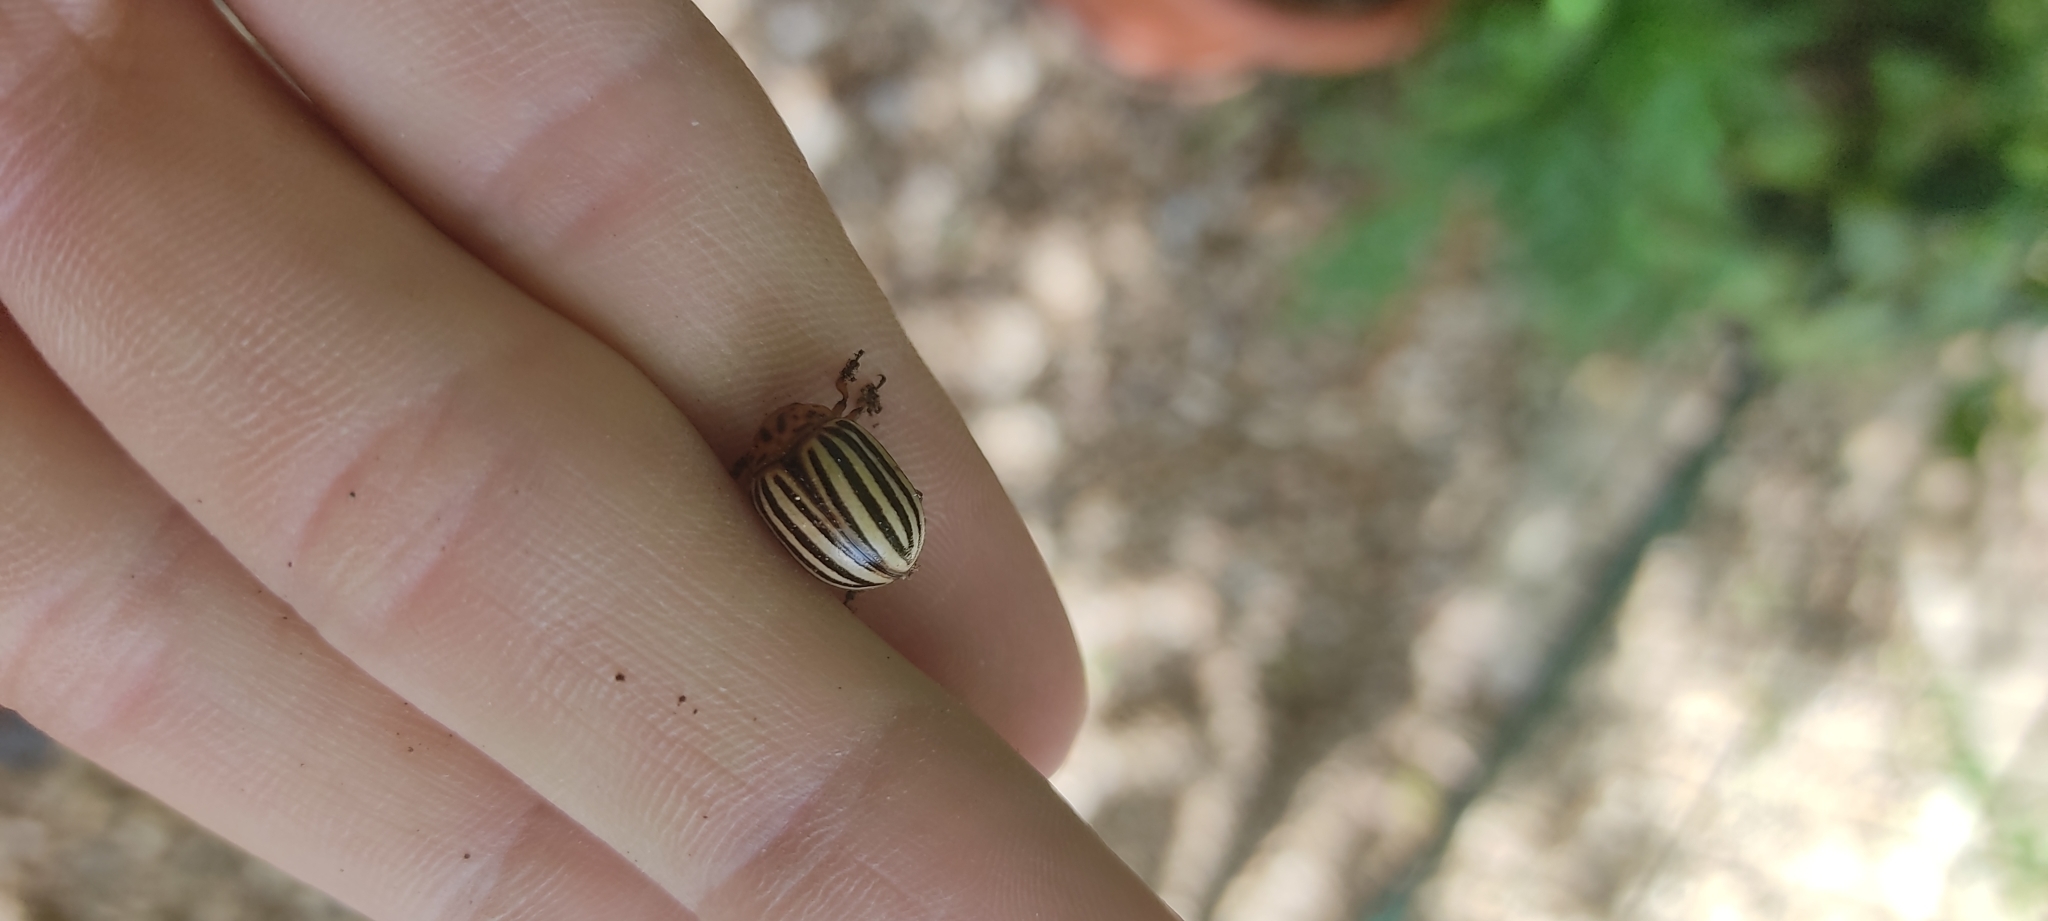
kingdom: Animalia
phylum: Arthropoda
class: Insecta
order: Coleoptera
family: Chrysomelidae
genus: Leptinotarsa
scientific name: Leptinotarsa decemlineata
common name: Colorado potato beetle
